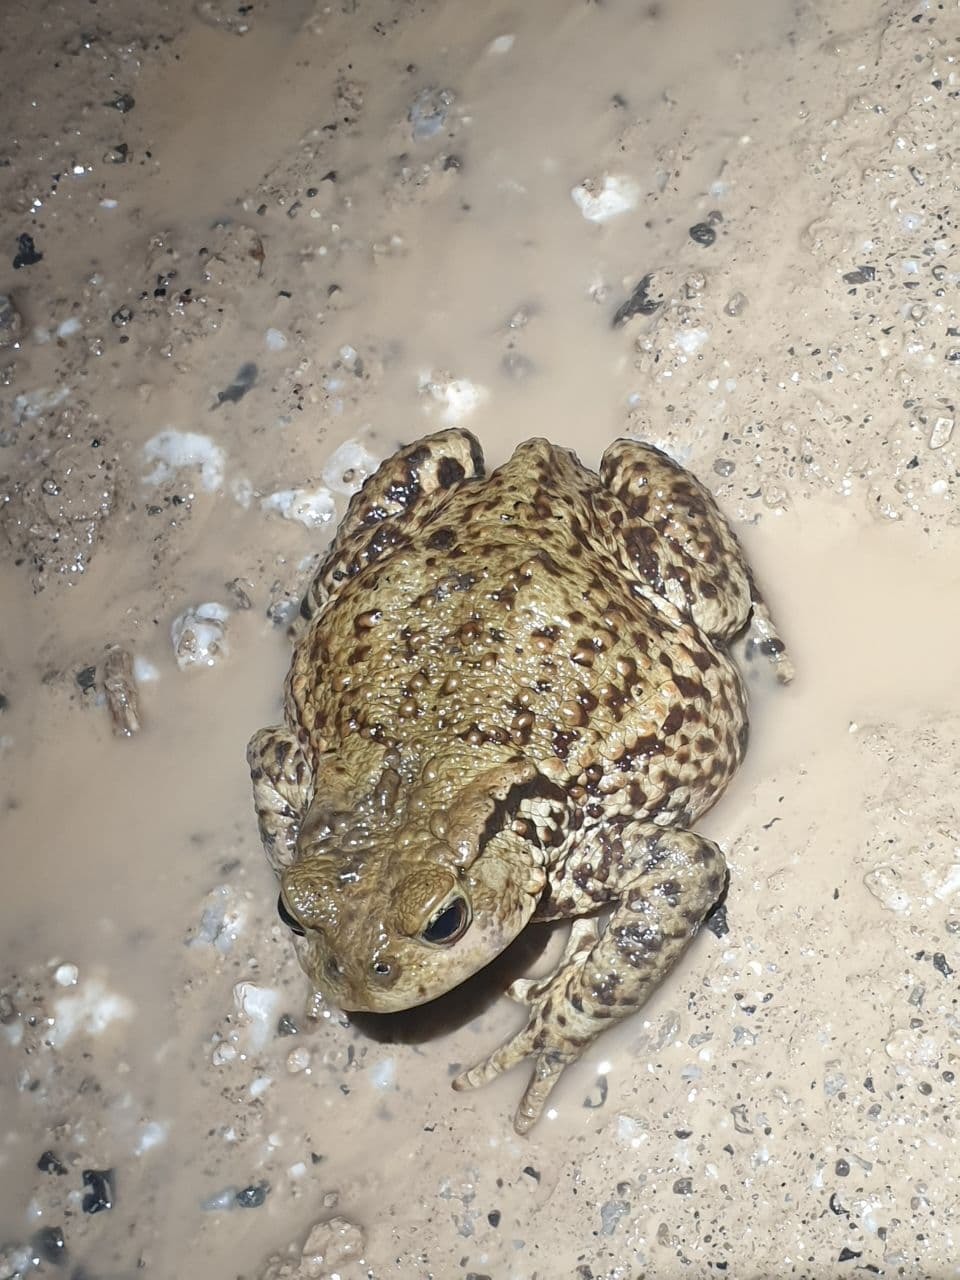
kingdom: Animalia
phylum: Chordata
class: Amphibia
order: Anura
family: Bufonidae
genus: Bufo
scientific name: Bufo bufo
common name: Common toad
